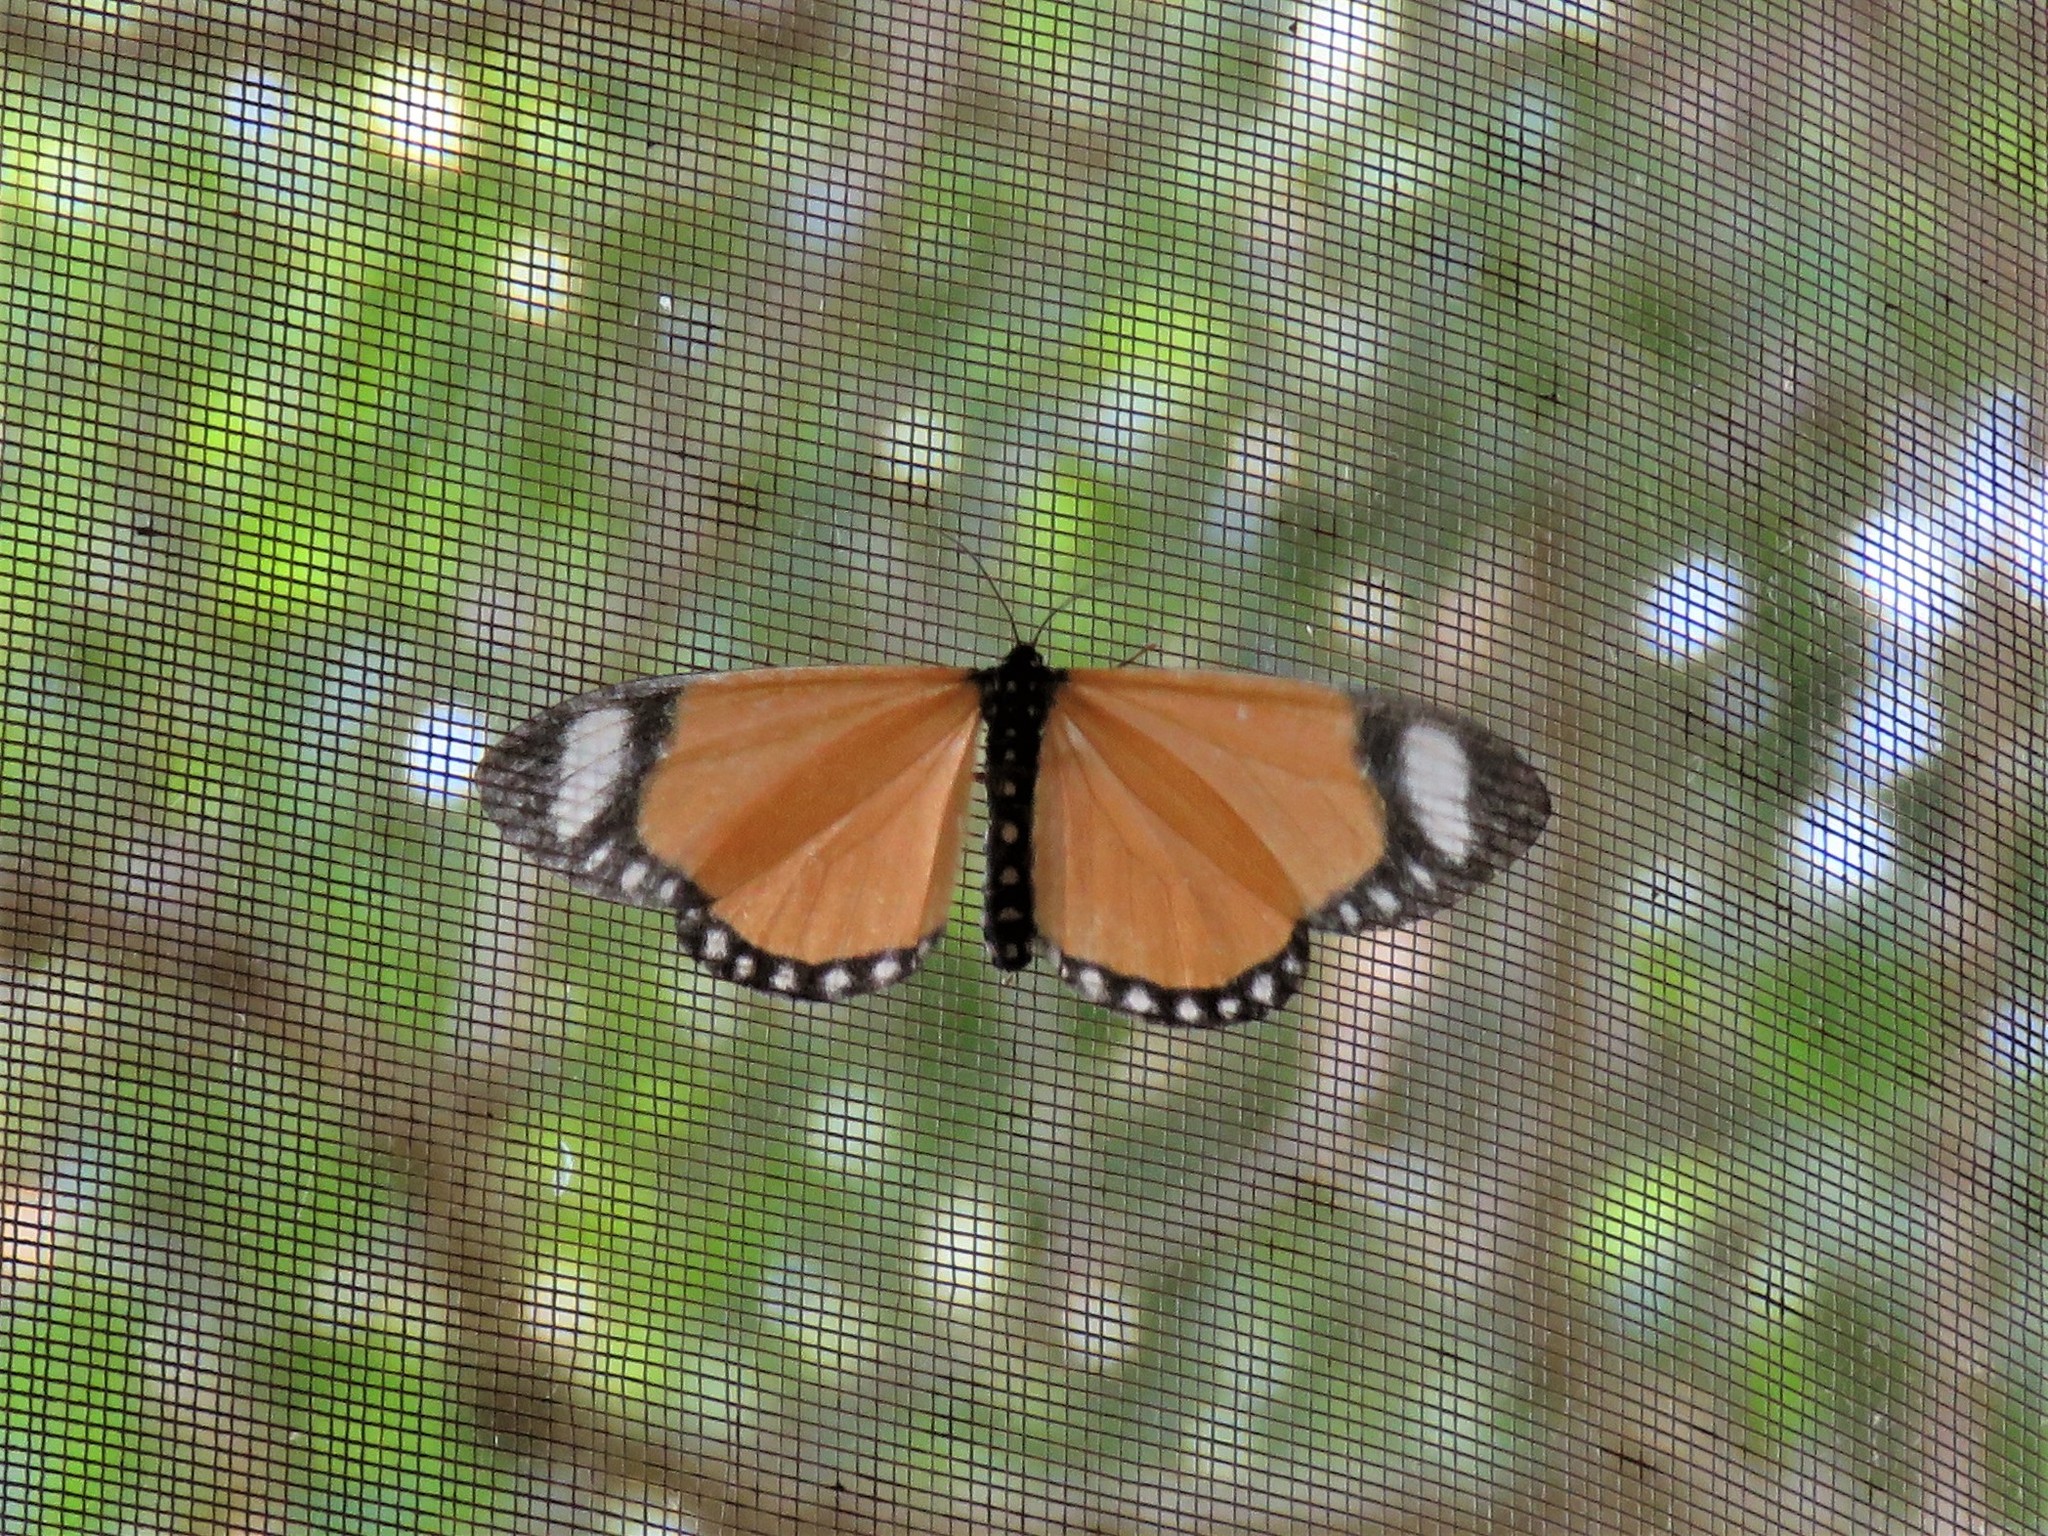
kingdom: Animalia
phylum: Arthropoda
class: Insecta
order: Lepidoptera
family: Geometridae
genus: Cartaletis
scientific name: Cartaletis libyssa
